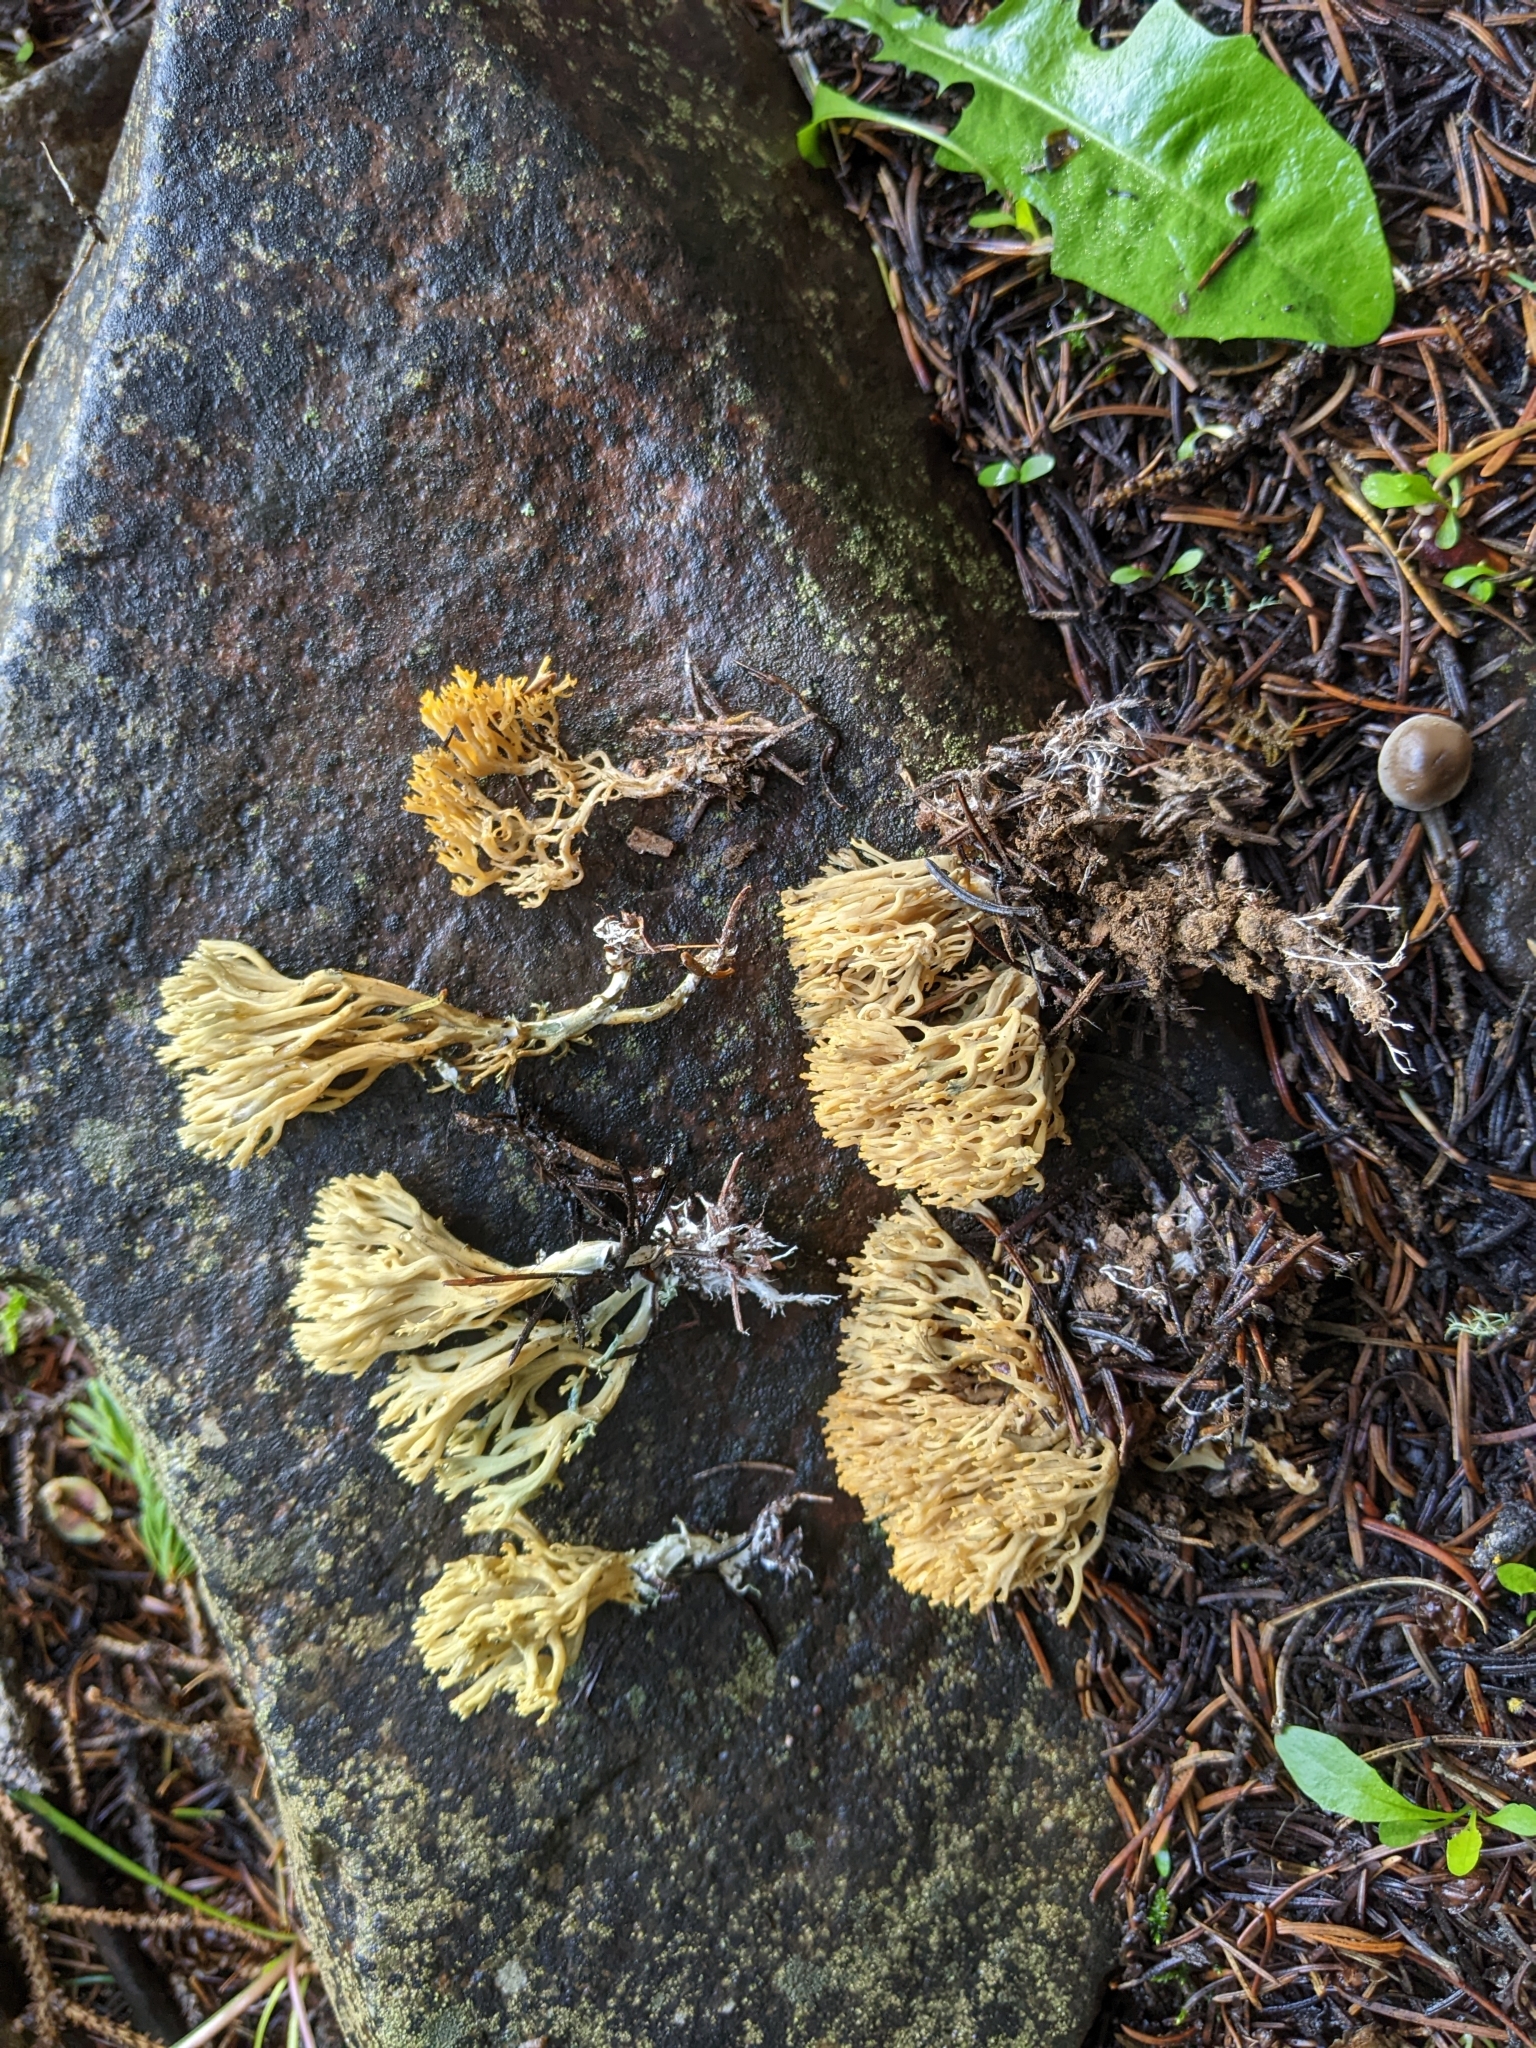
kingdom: Fungi
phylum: Basidiomycota
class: Agaricomycetes
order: Gomphales
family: Gomphaceae
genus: Phaeoclavulina
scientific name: Phaeoclavulina
